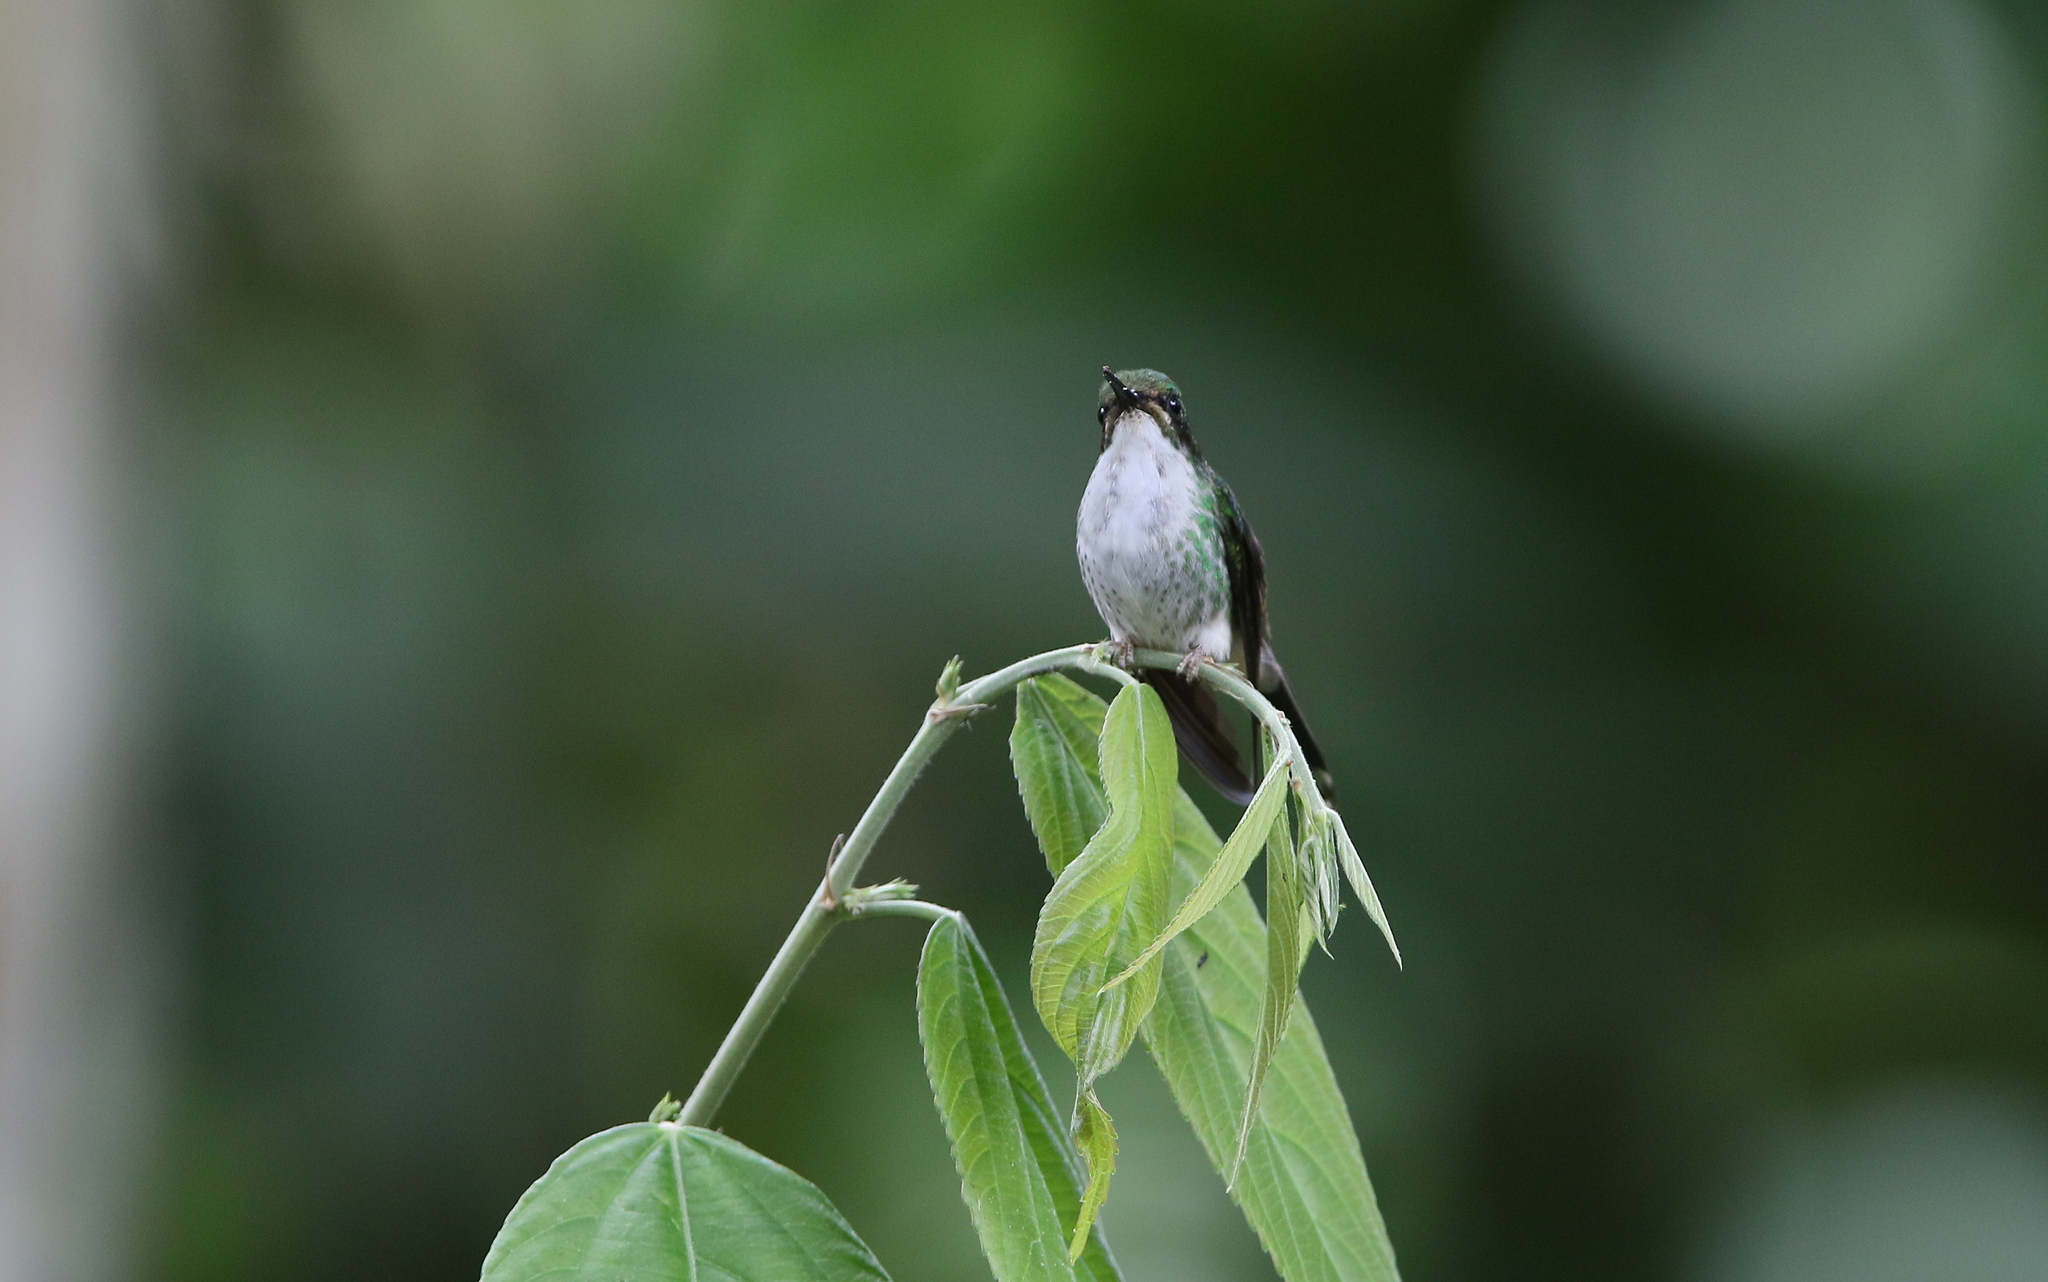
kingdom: Animalia
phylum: Chordata
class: Aves
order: Apodiformes
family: Trochilidae
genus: Ocreatus
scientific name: Ocreatus underwoodii
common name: Booted racket-tail
